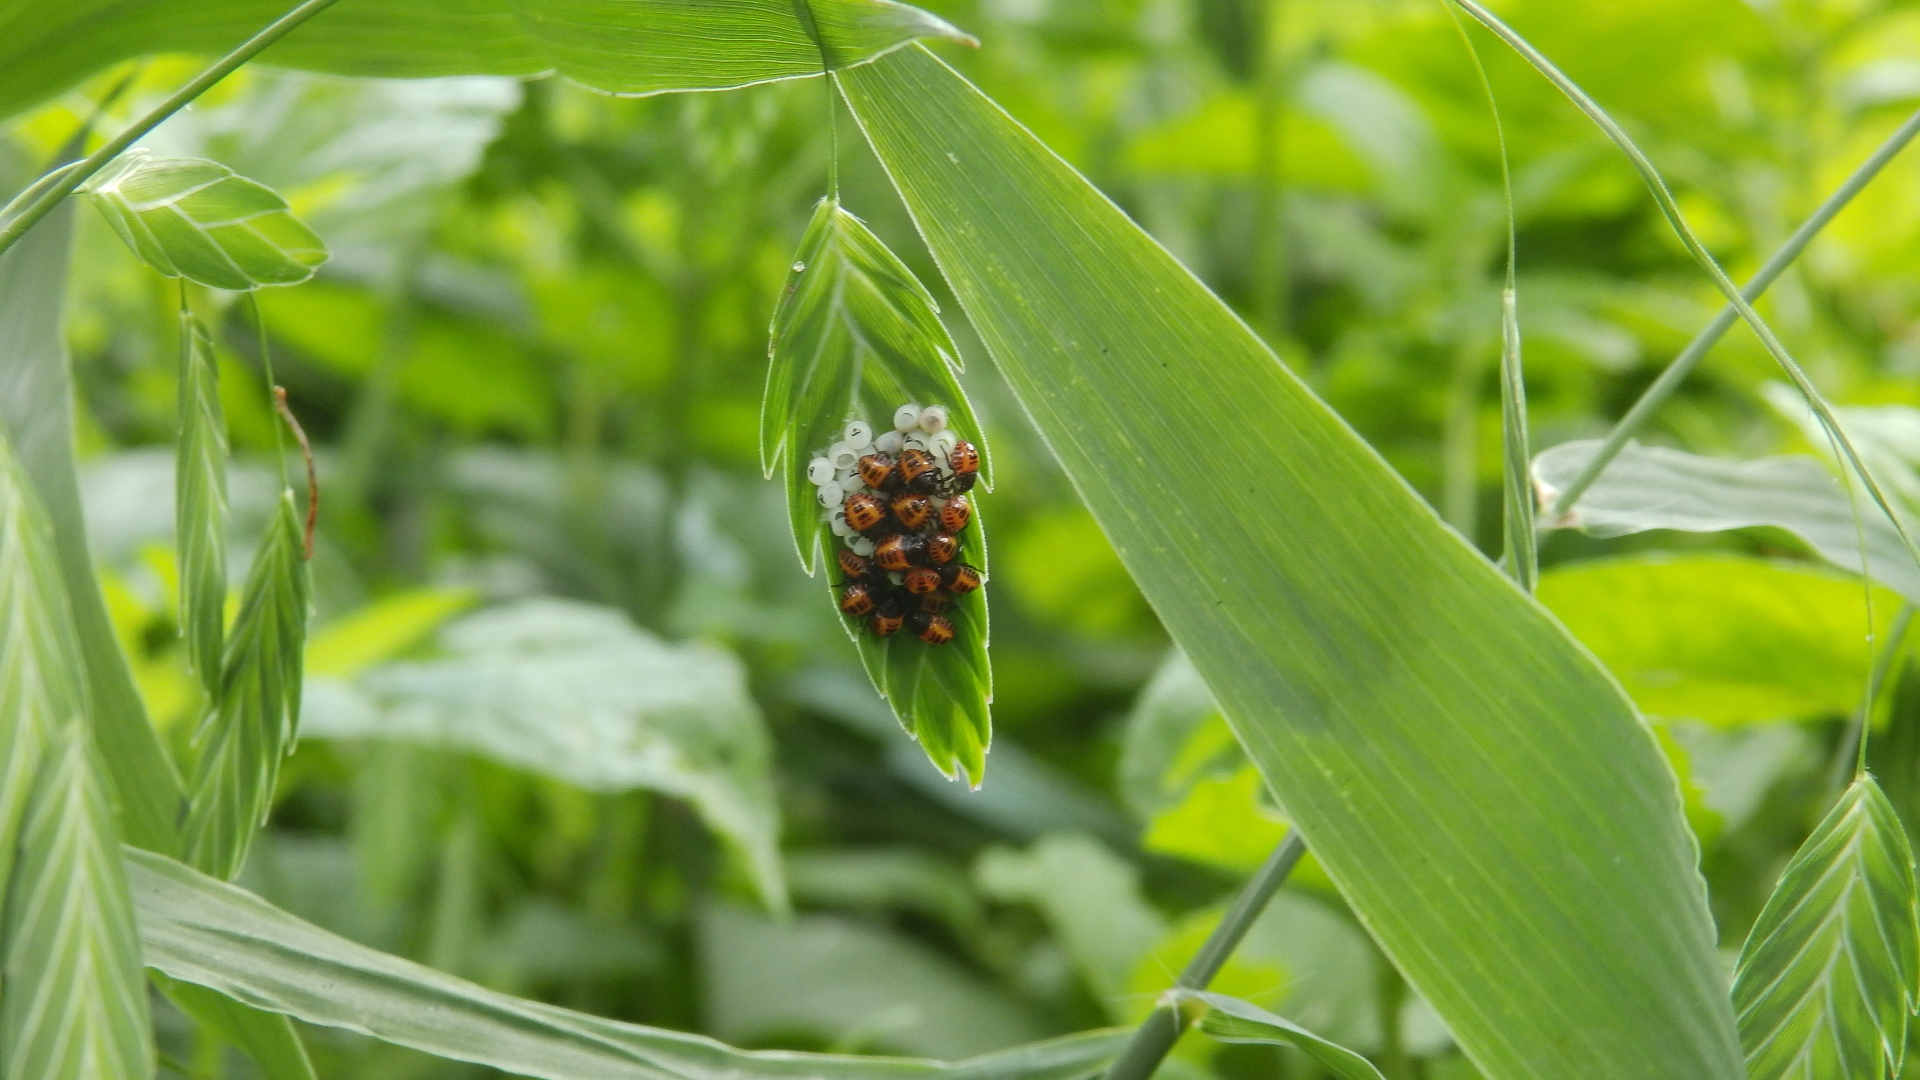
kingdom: Animalia
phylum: Arthropoda
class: Insecta
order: Hemiptera
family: Pentatomidae
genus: Halyomorpha
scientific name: Halyomorpha halys
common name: Brown marmorated stink bug
